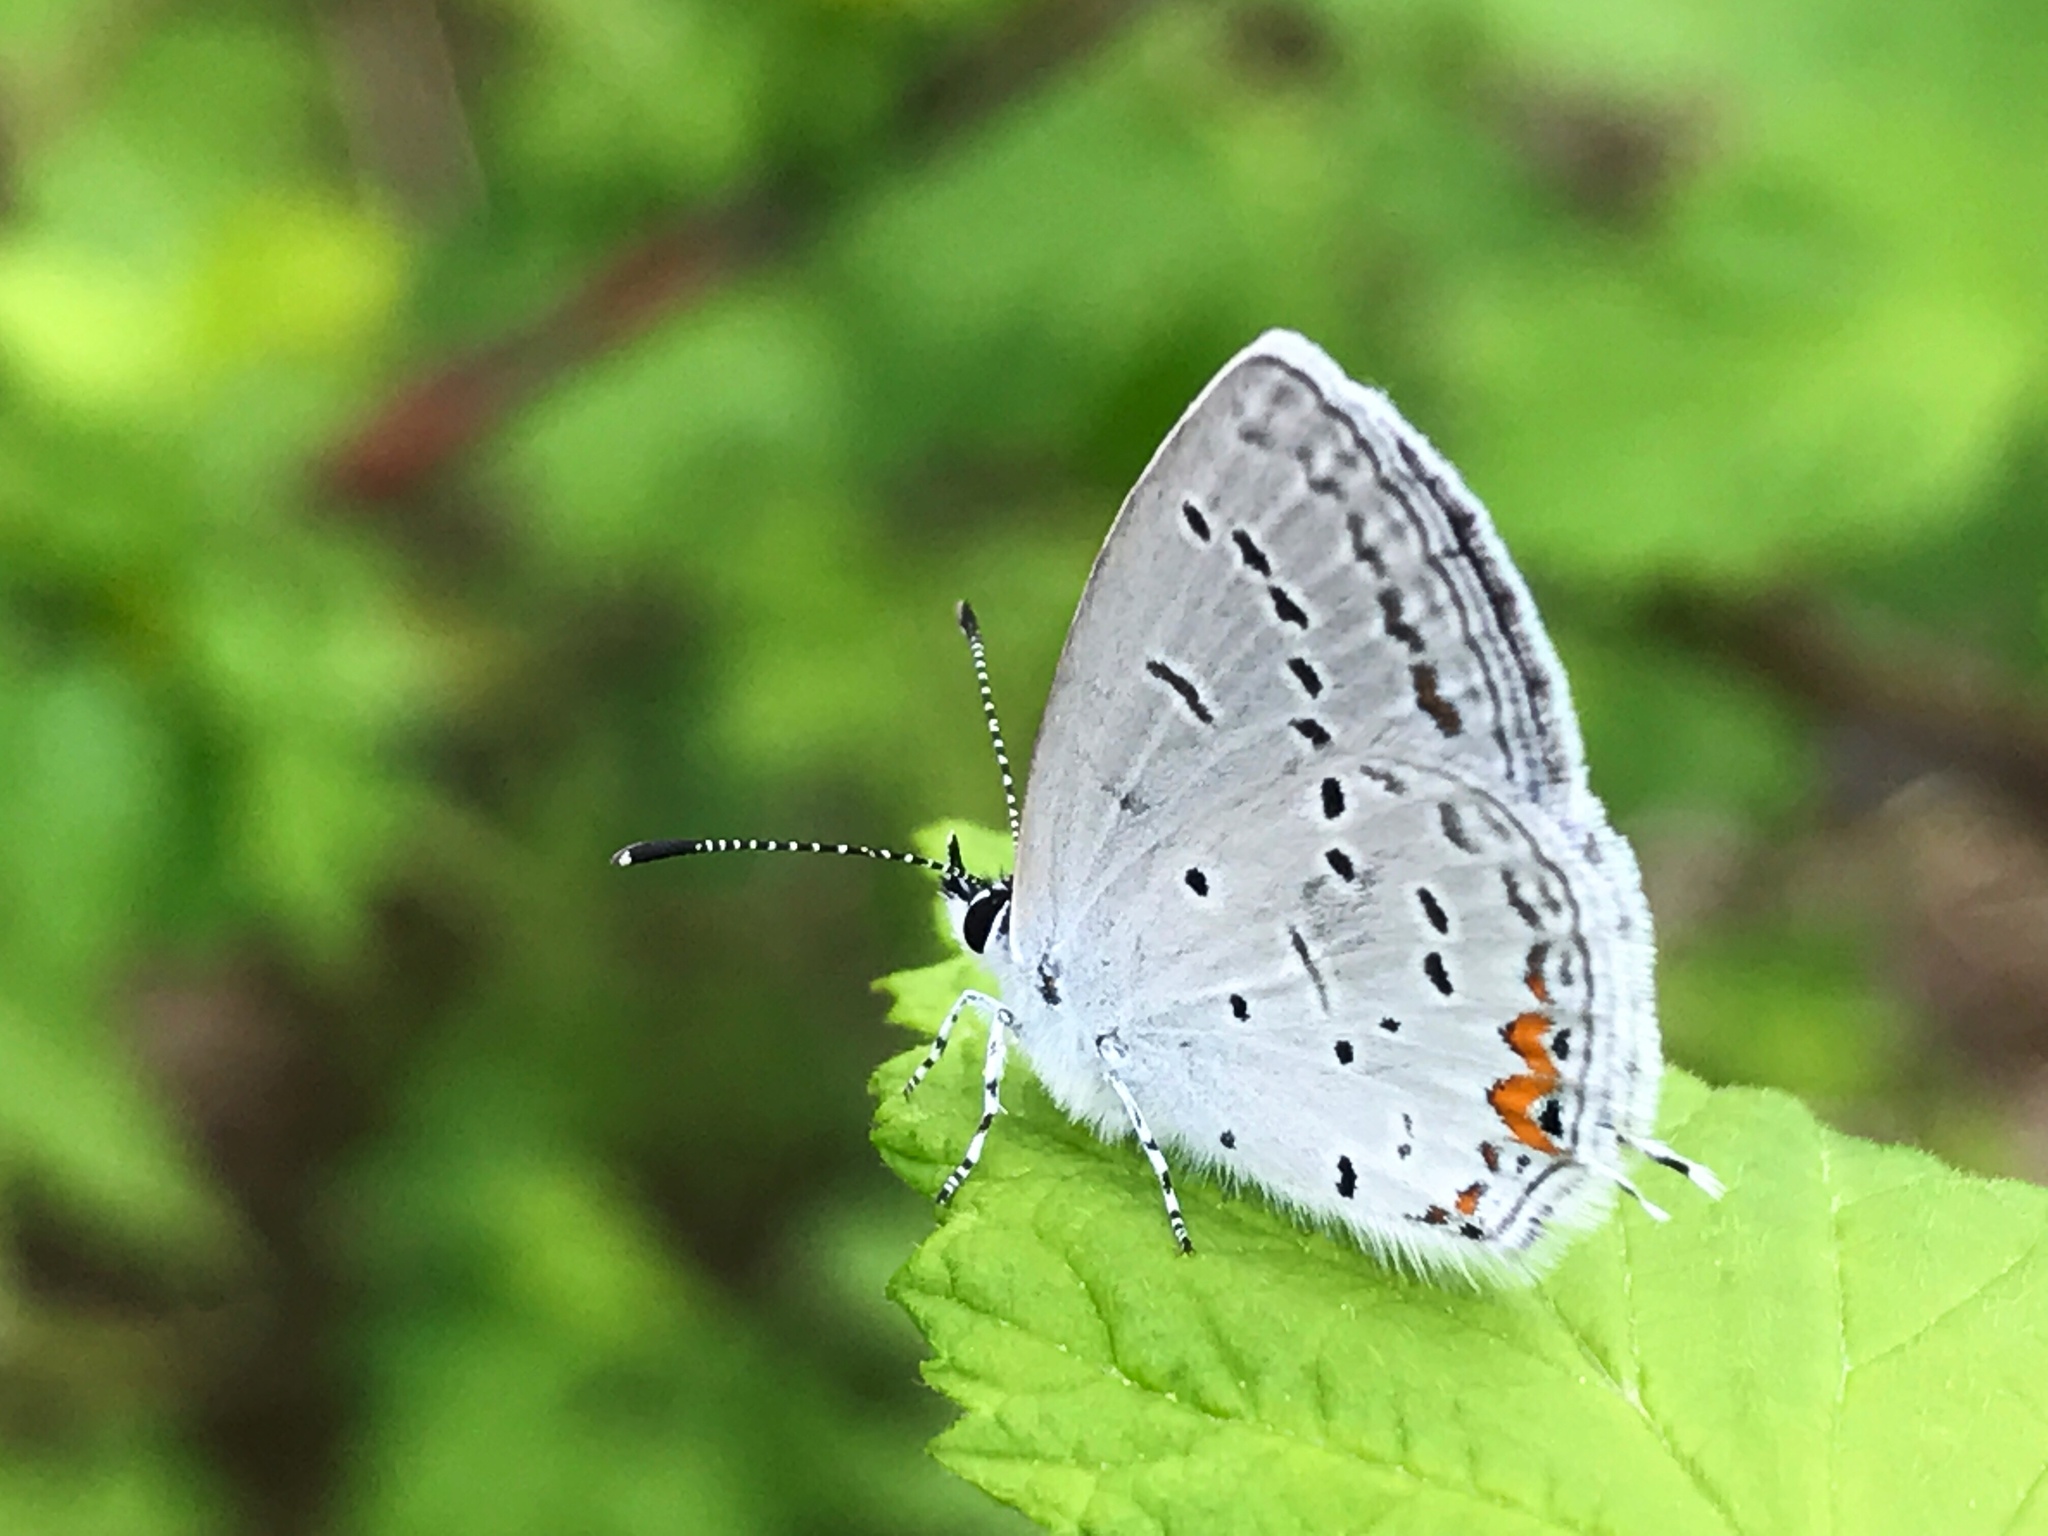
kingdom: Animalia
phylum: Arthropoda
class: Insecta
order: Lepidoptera
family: Lycaenidae
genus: Elkalyce
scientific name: Elkalyce comyntas
